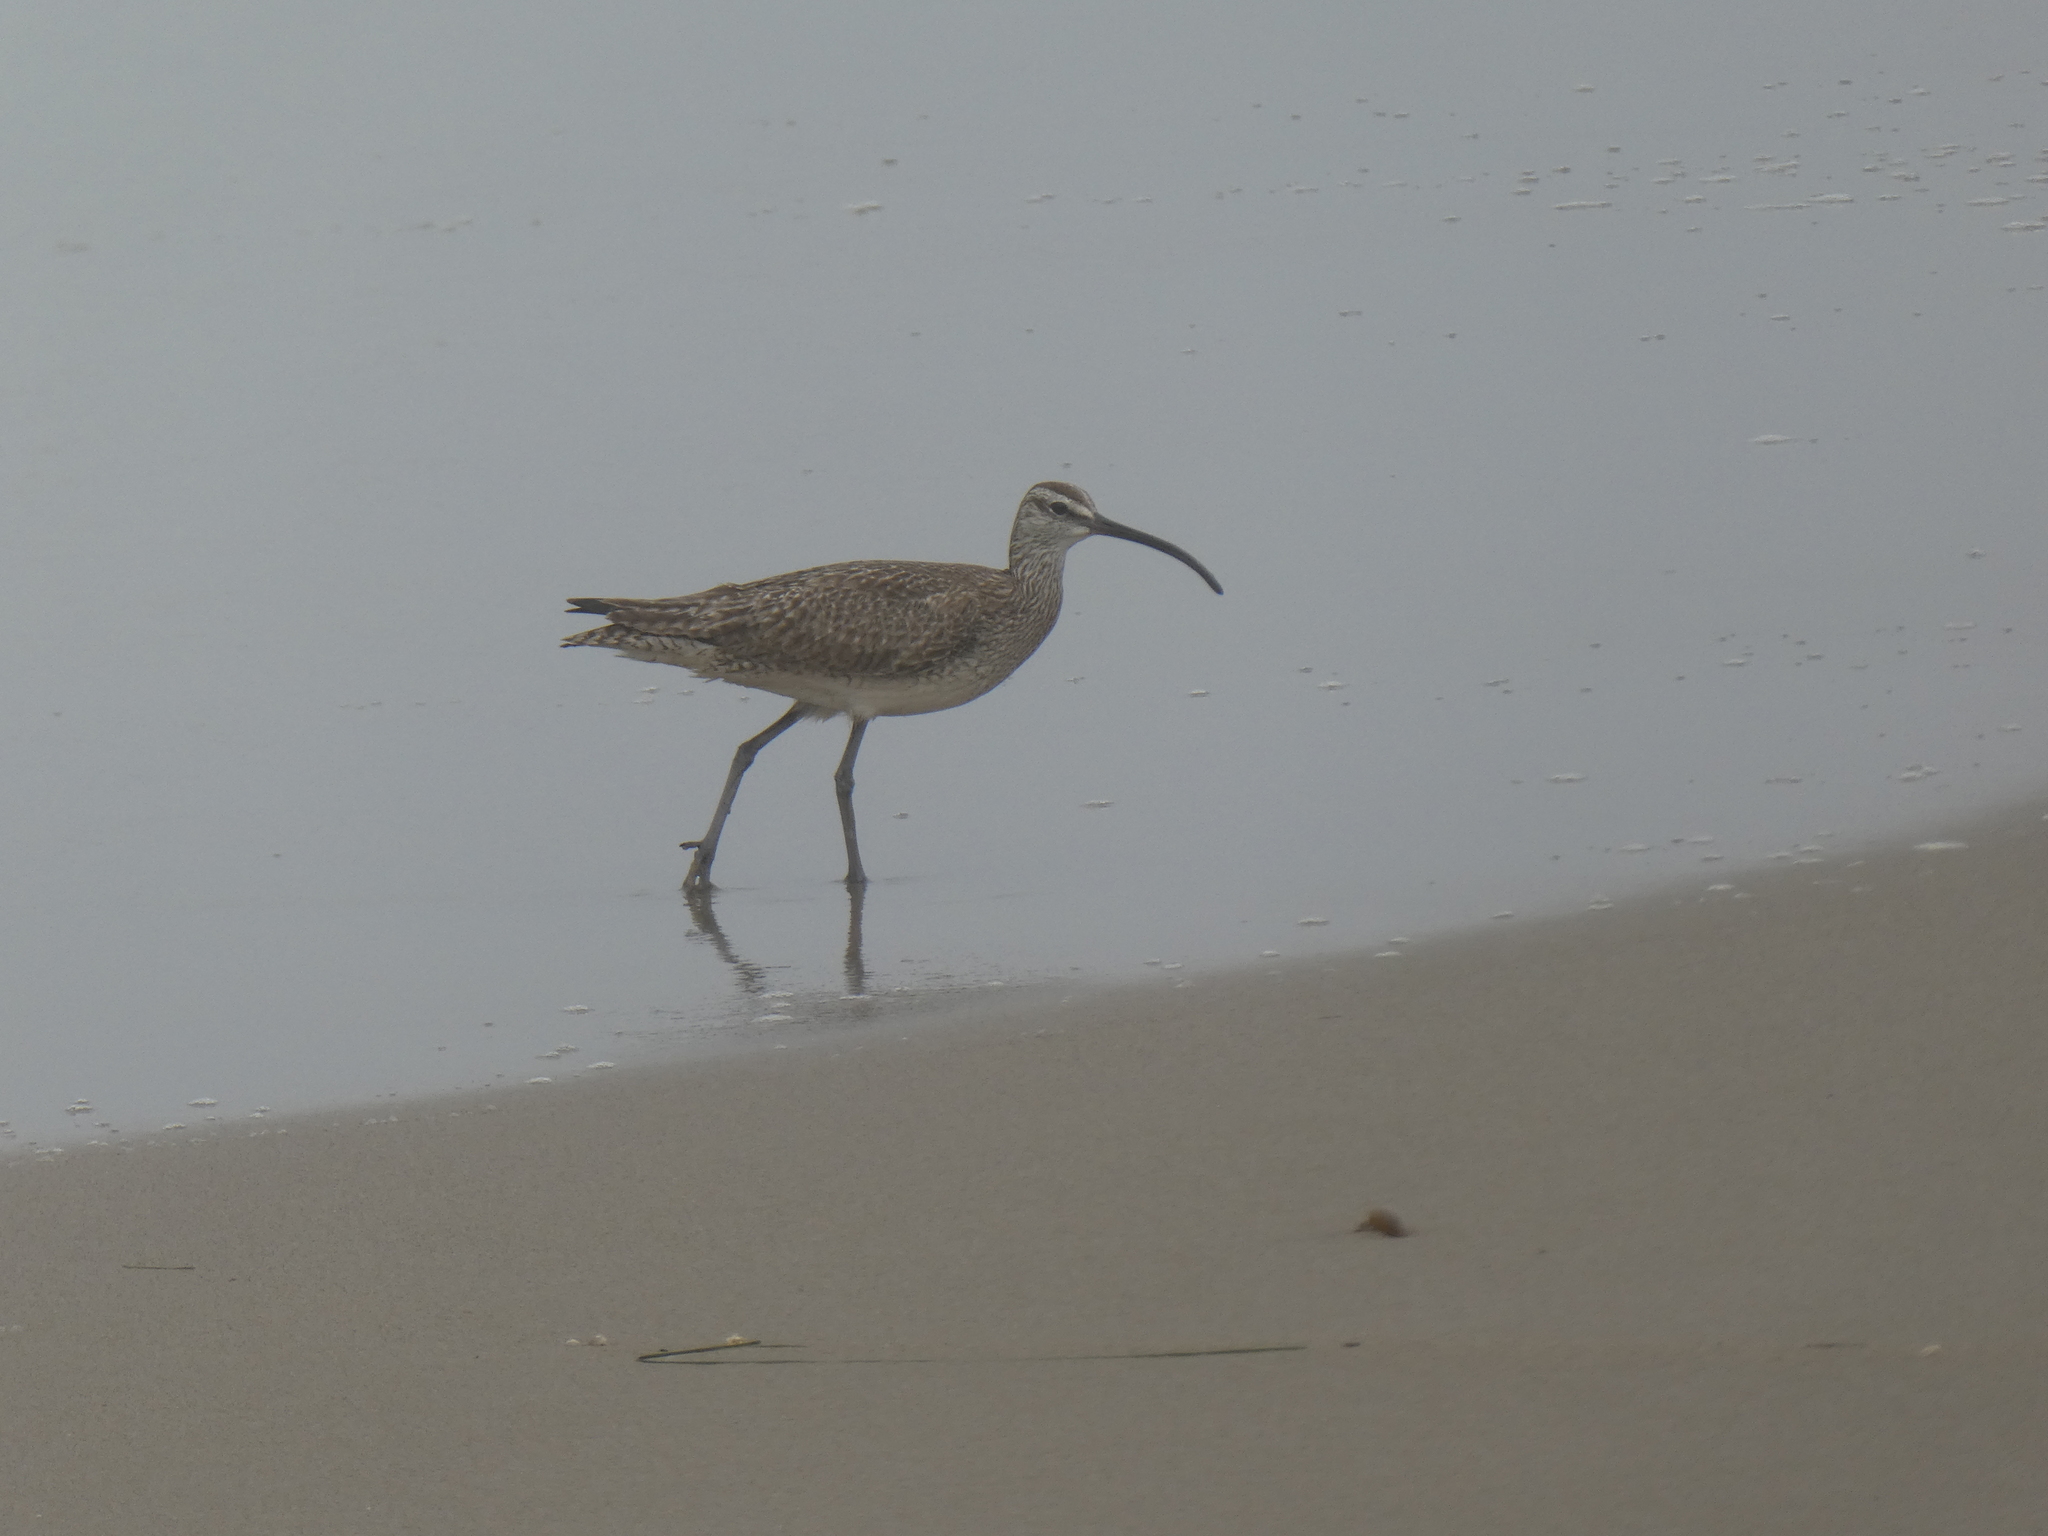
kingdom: Animalia
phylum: Chordata
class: Aves
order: Charadriiformes
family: Scolopacidae
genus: Numenius
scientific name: Numenius phaeopus
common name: Whimbrel
